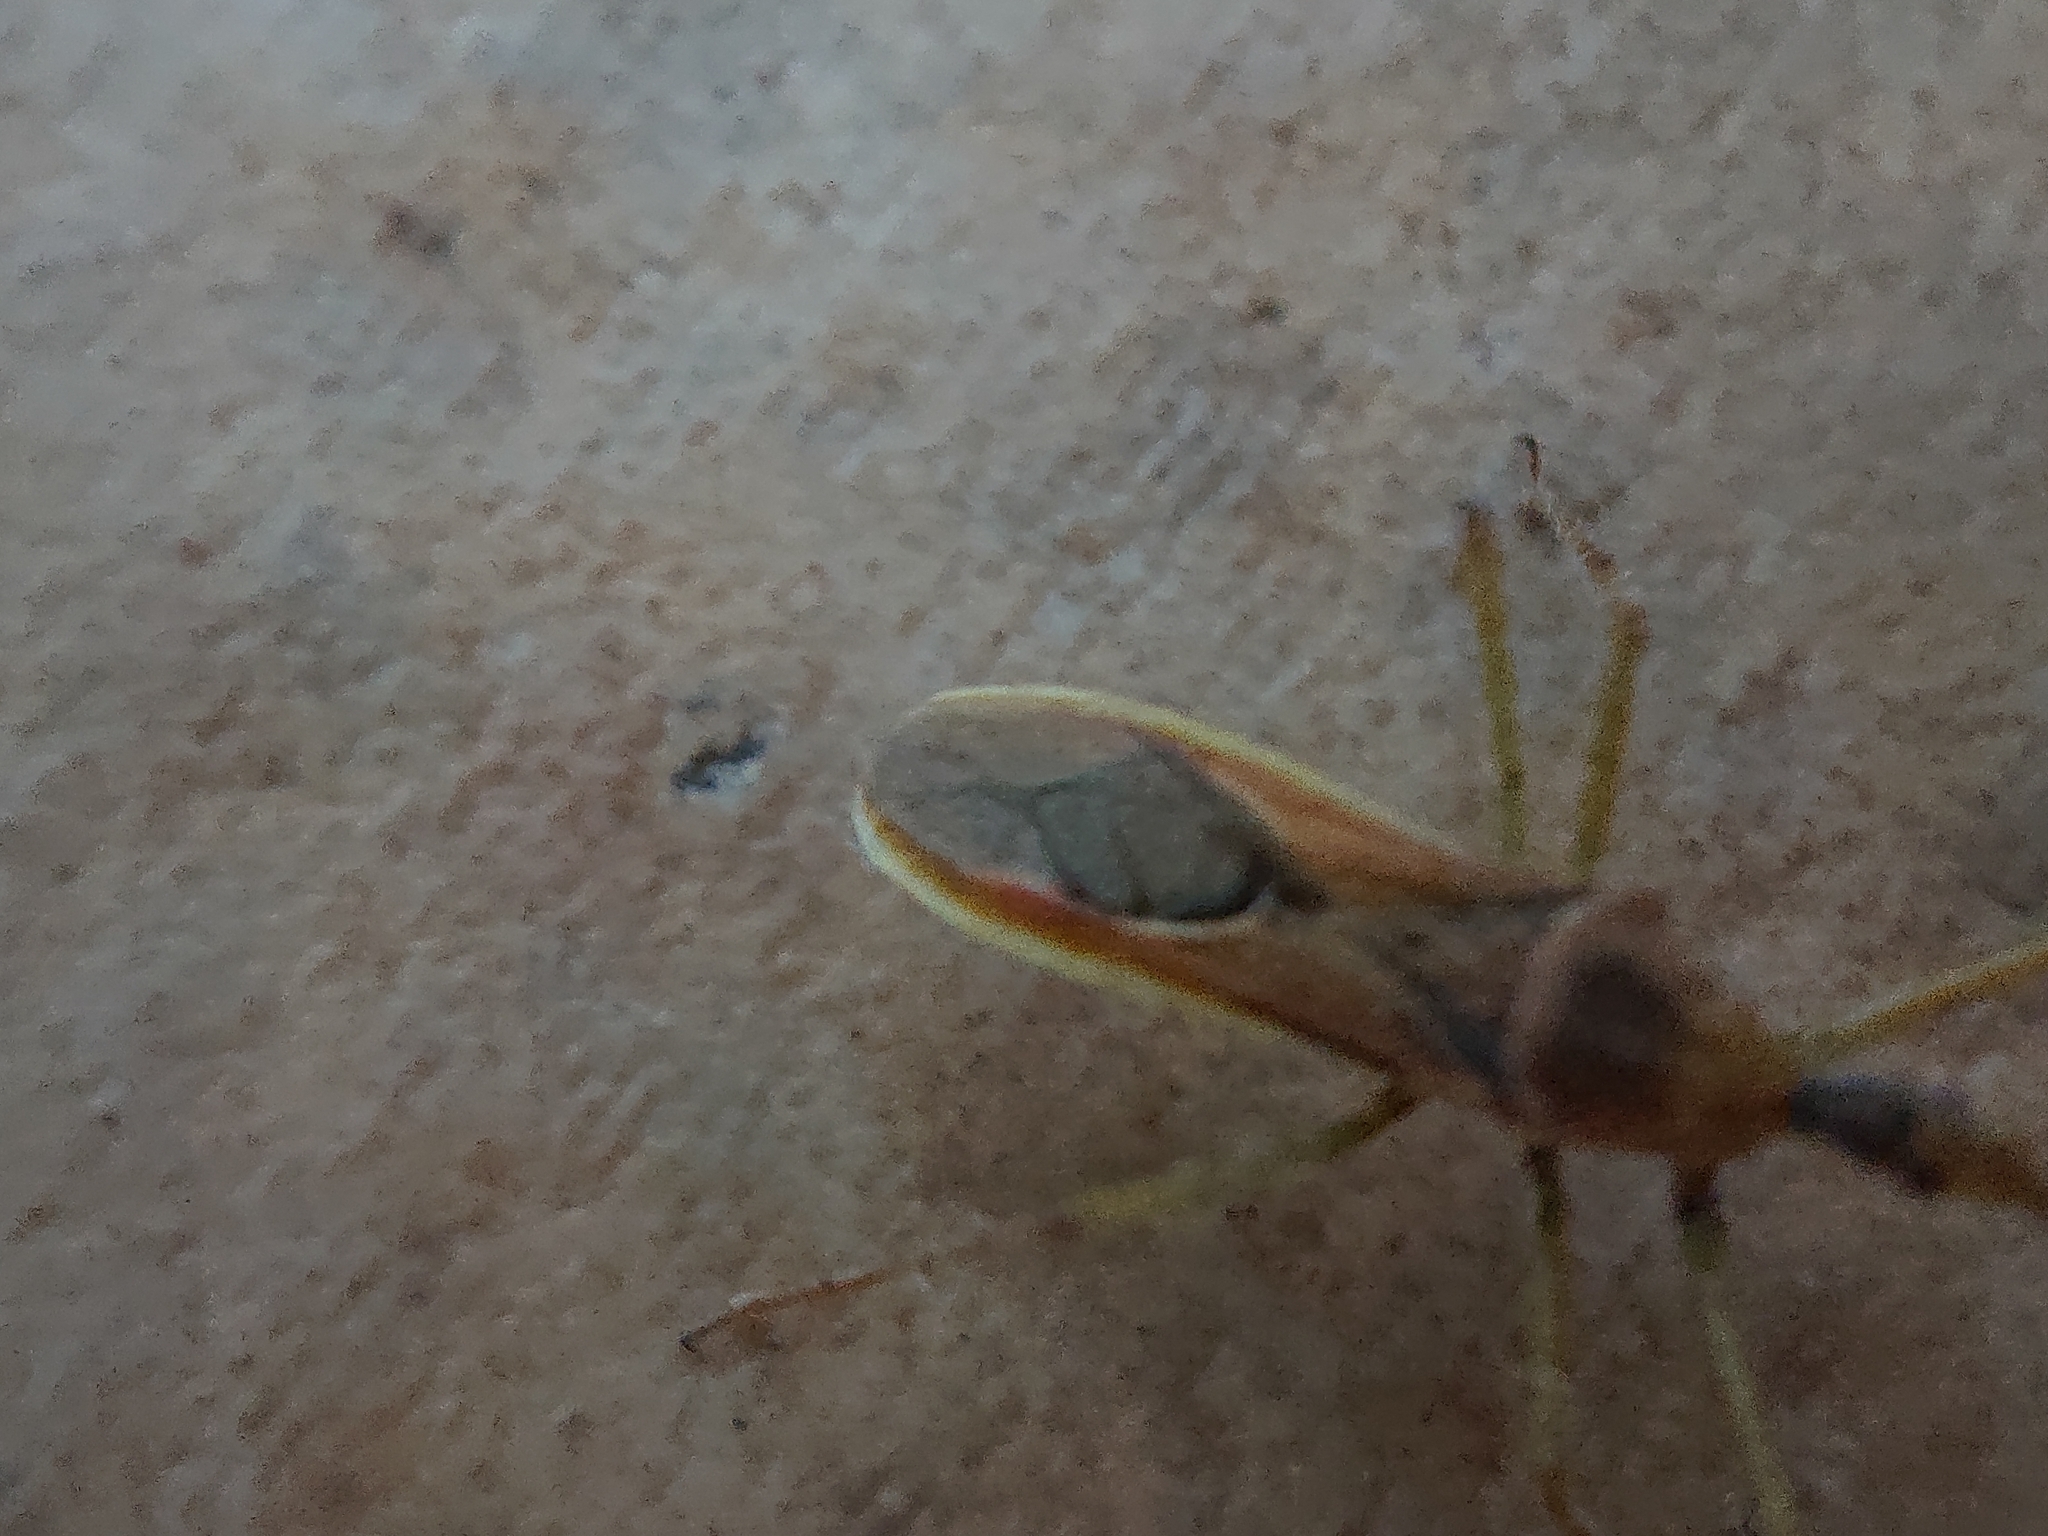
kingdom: Animalia
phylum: Arthropoda
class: Insecta
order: Hemiptera
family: Reduviidae
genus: Zelus
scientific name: Zelus renardii
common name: Assassin bug
